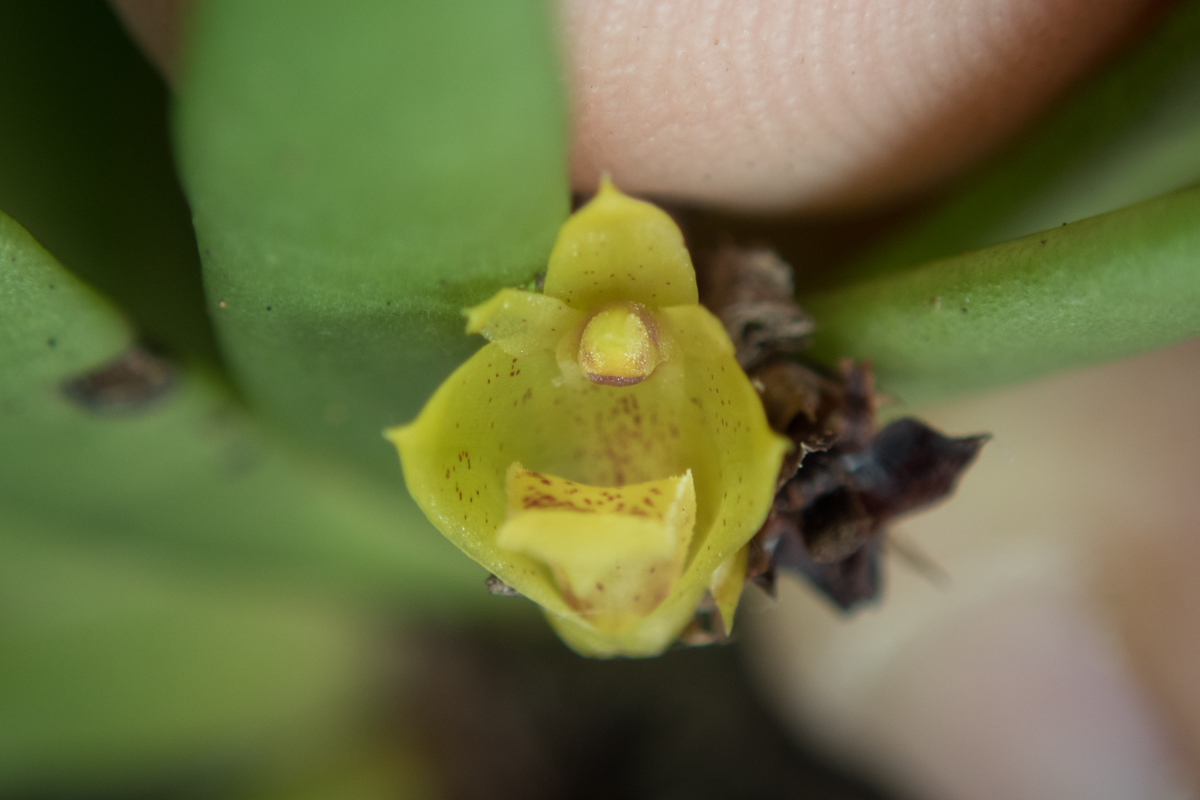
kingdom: Plantae
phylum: Tracheophyta
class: Liliopsida
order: Asparagales
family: Orchidaceae
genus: Oxystophyllum
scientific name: Oxystophyllum carnosum
